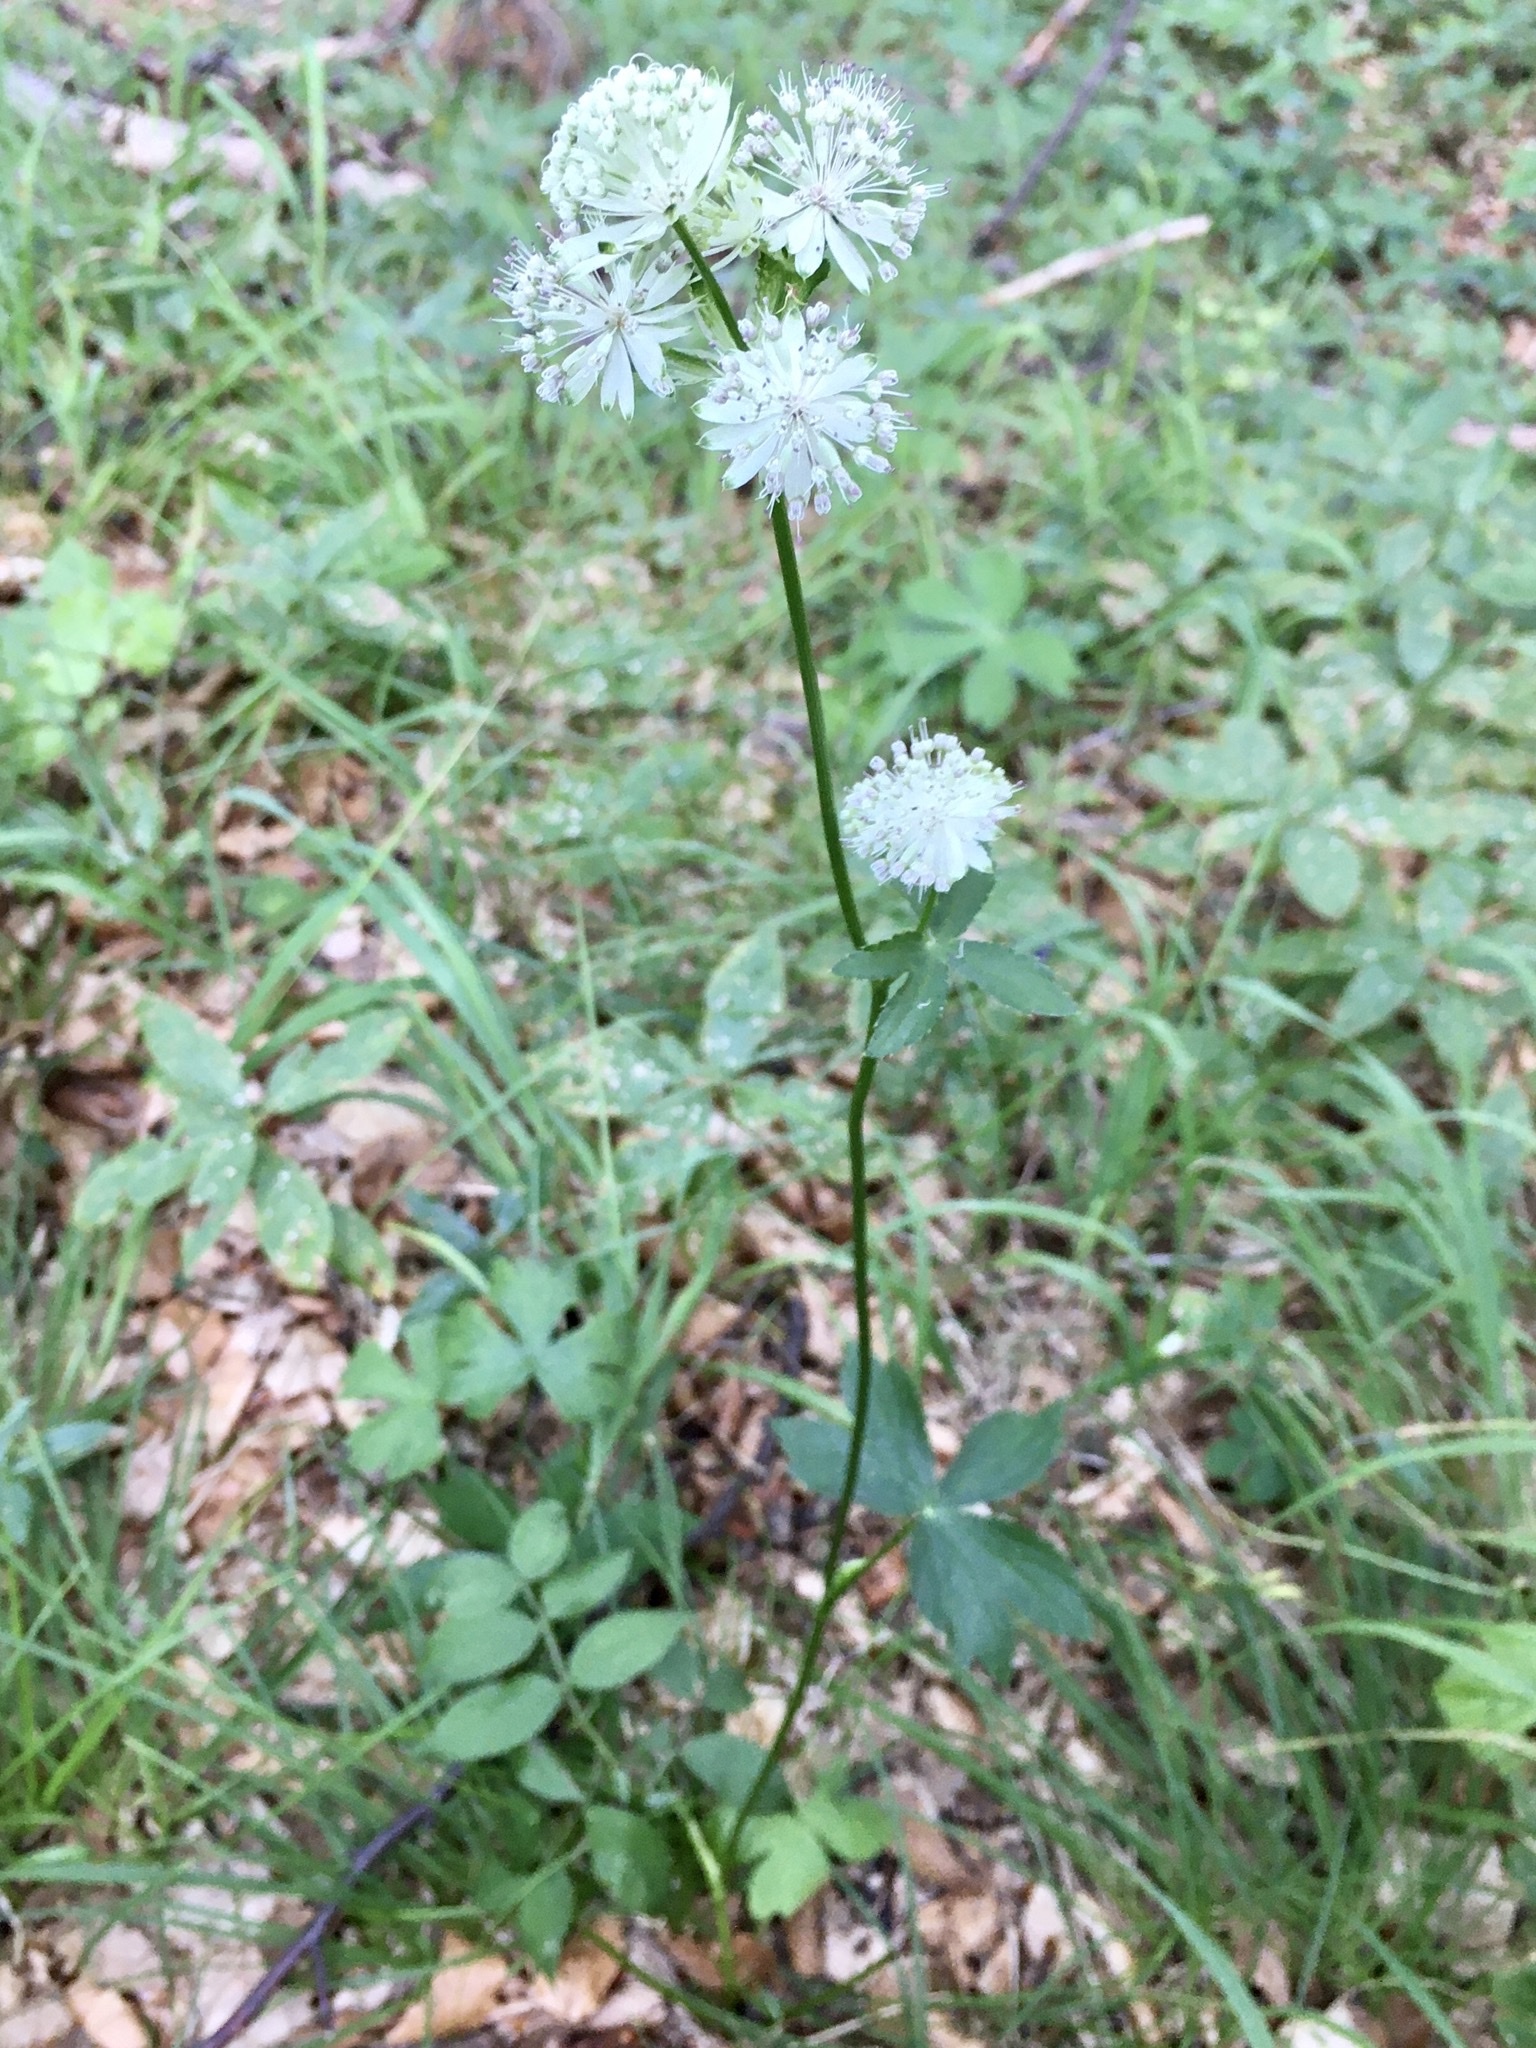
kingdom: Plantae
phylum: Tracheophyta
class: Magnoliopsida
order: Apiales
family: Apiaceae
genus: Astrantia
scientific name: Astrantia major
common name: Greater masterwort
